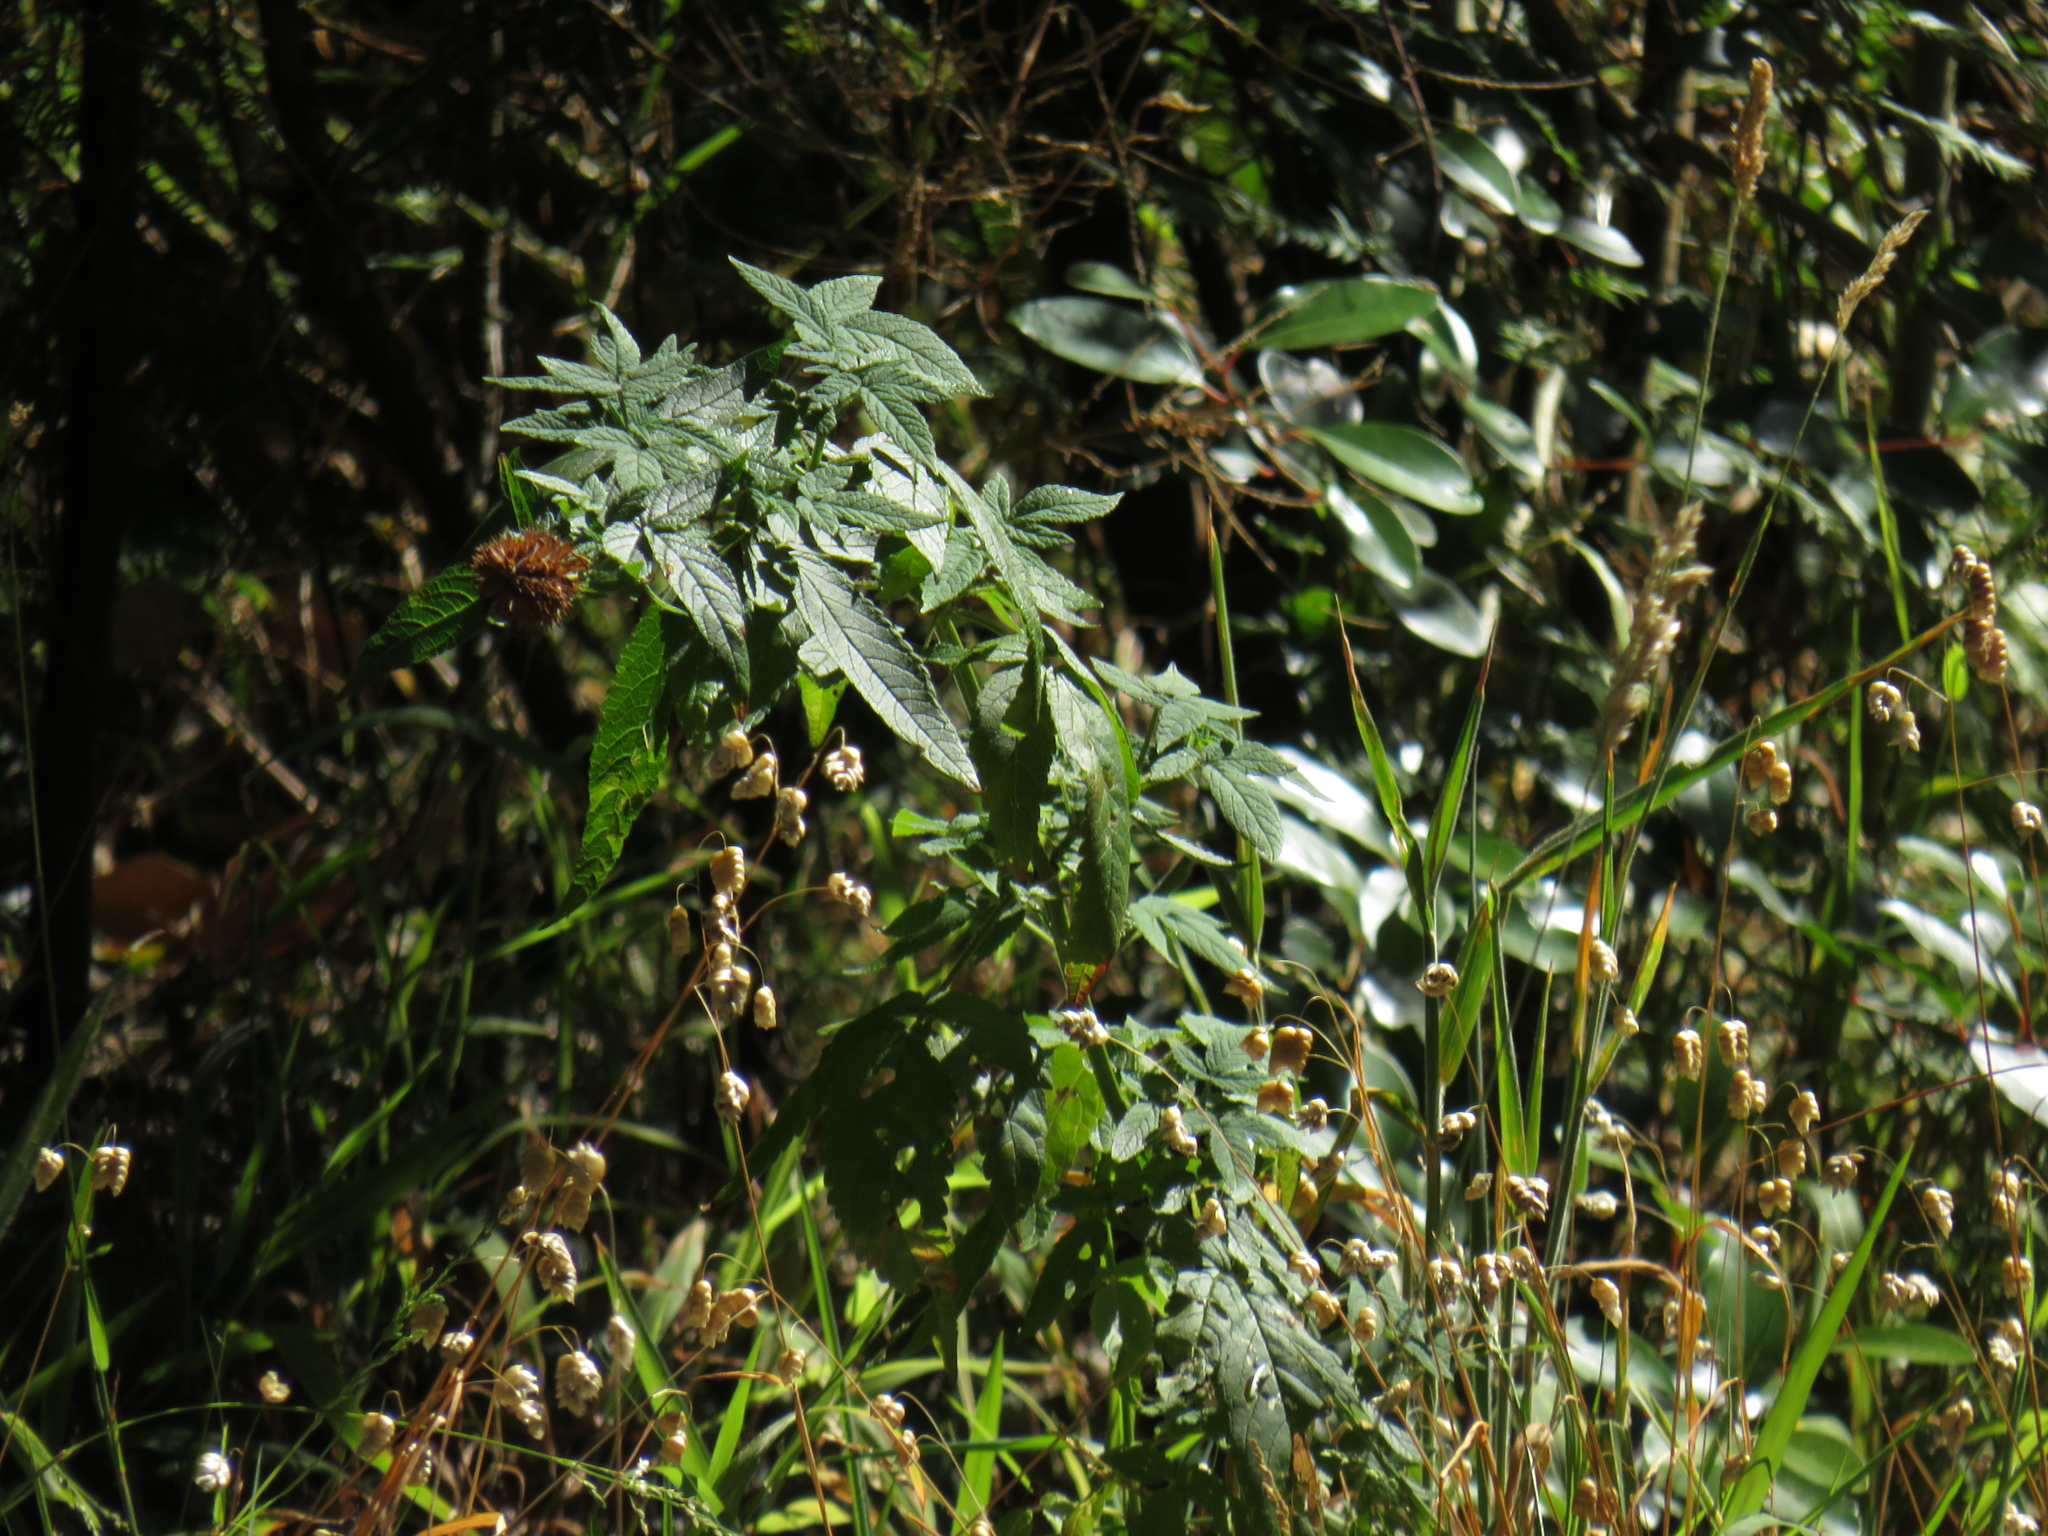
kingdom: Plantae
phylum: Tracheophyta
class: Magnoliopsida
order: Lamiales
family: Lamiaceae
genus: Cedronella
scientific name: Cedronella canariensis
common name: Canary islands balm
